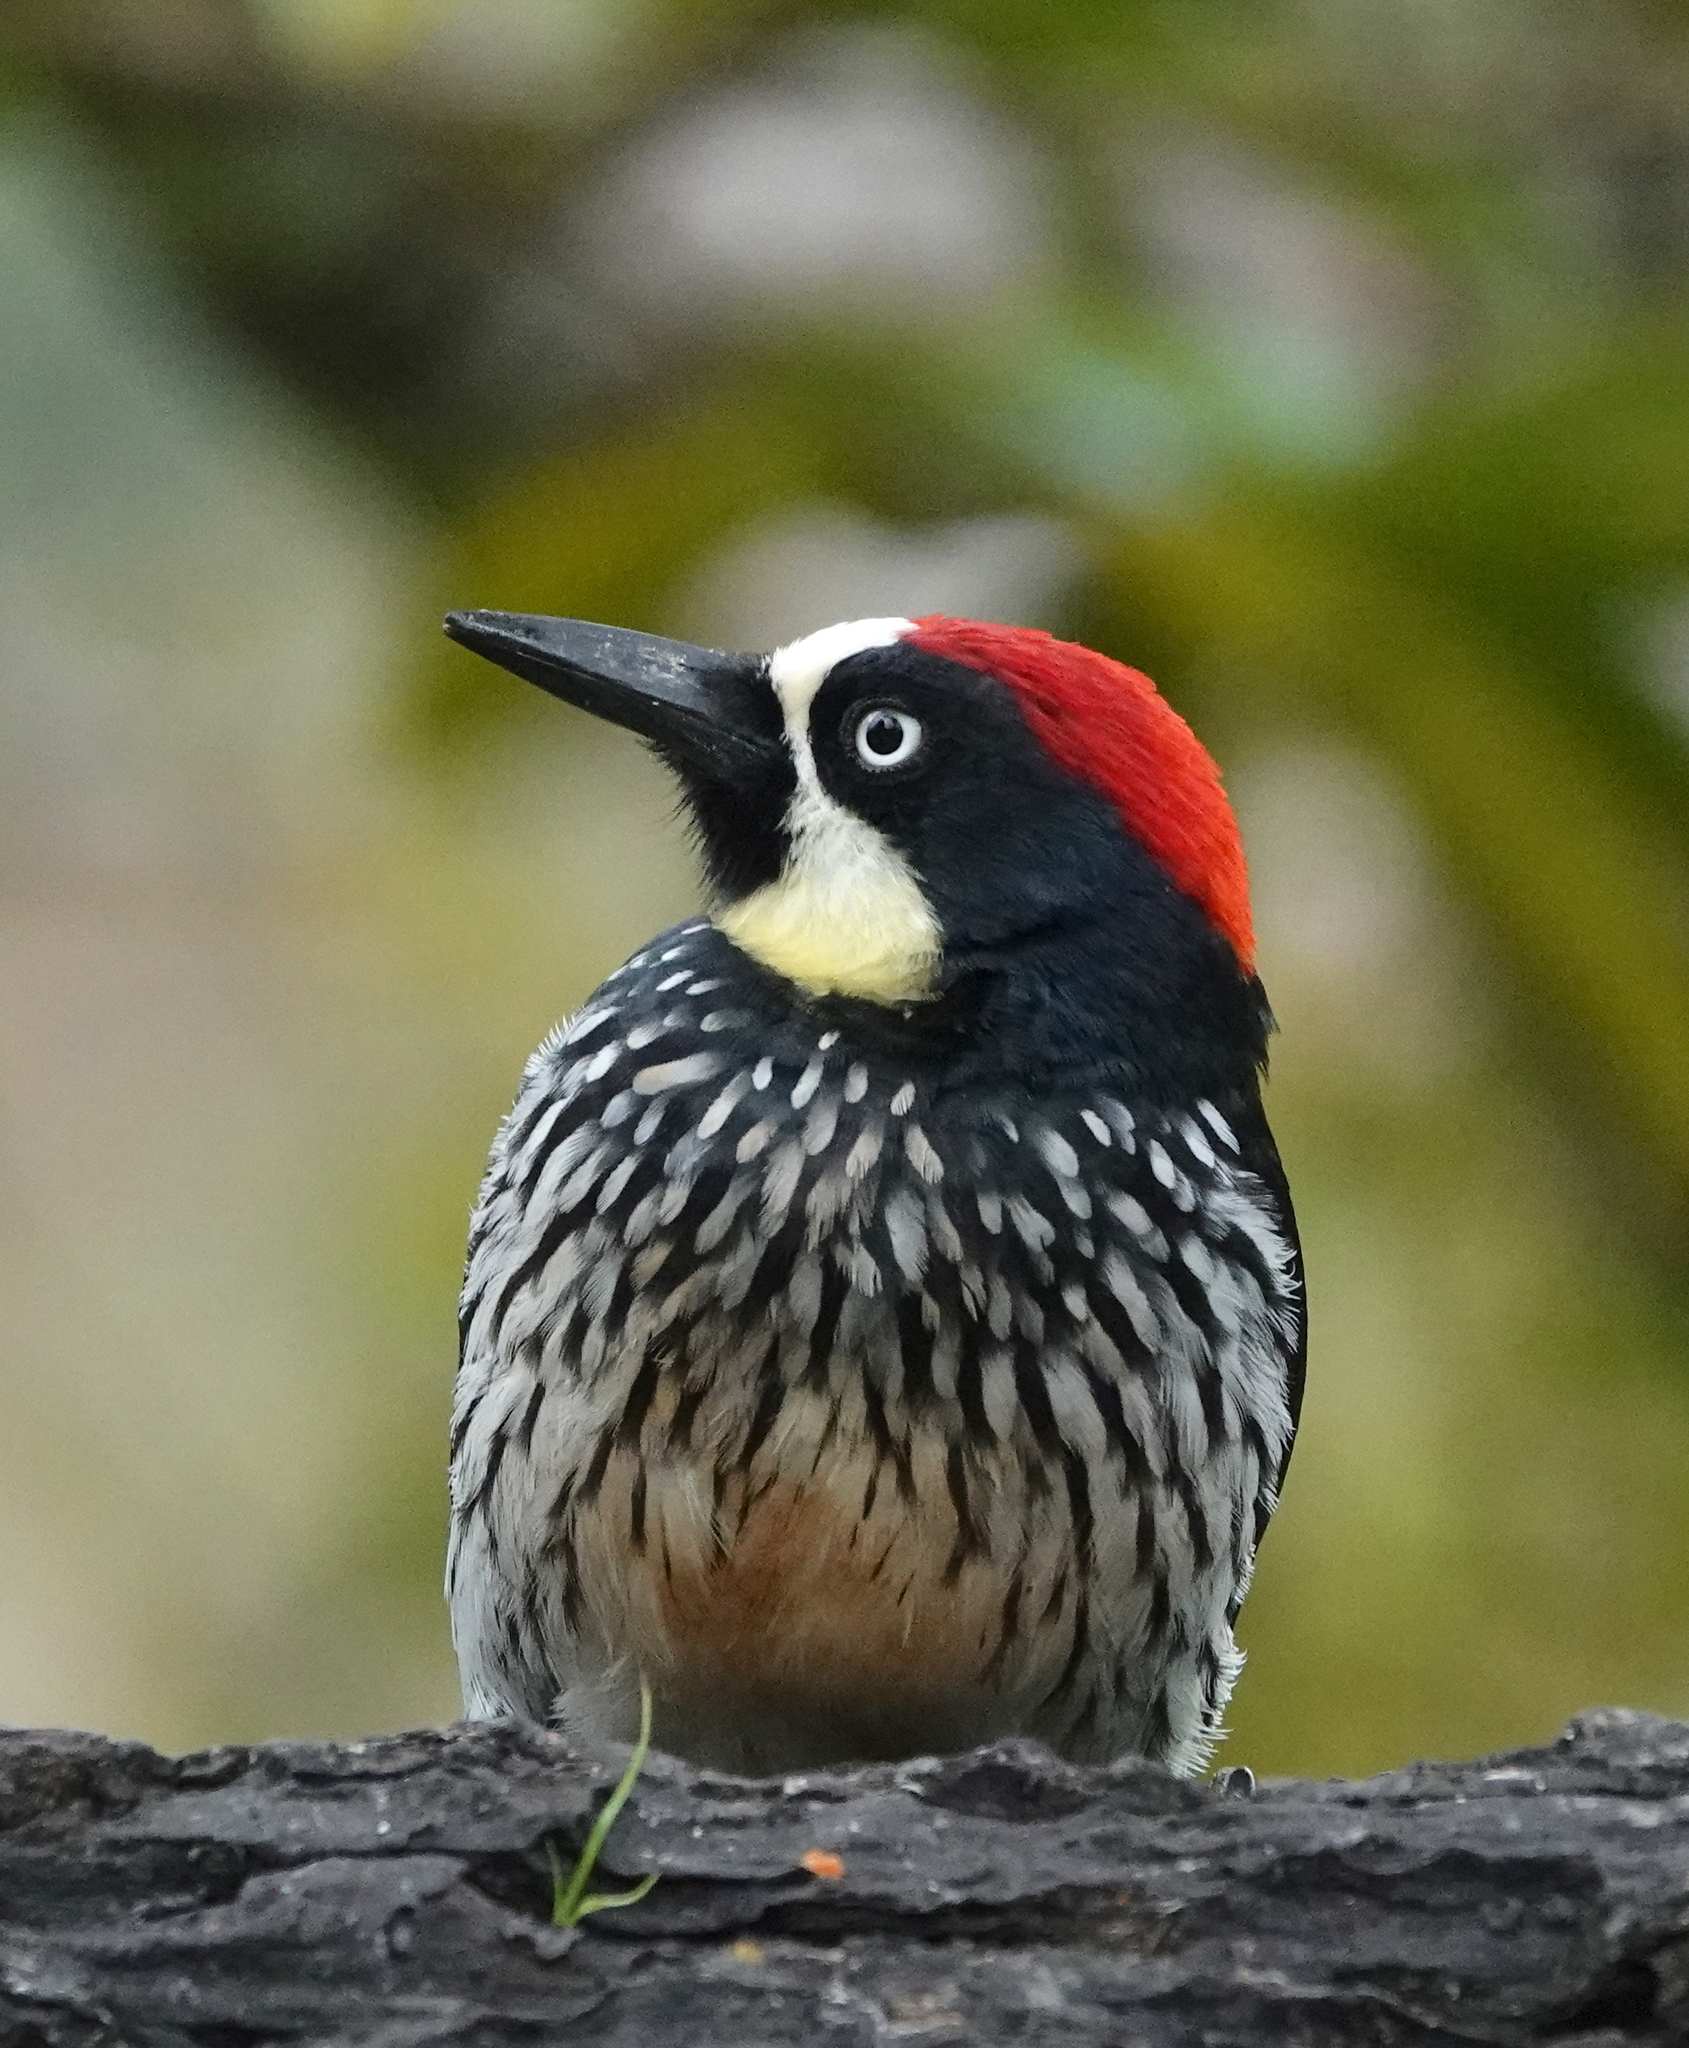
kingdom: Animalia
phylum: Chordata
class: Aves
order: Piciformes
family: Picidae
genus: Melanerpes
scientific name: Melanerpes formicivorus
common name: Acorn woodpecker
